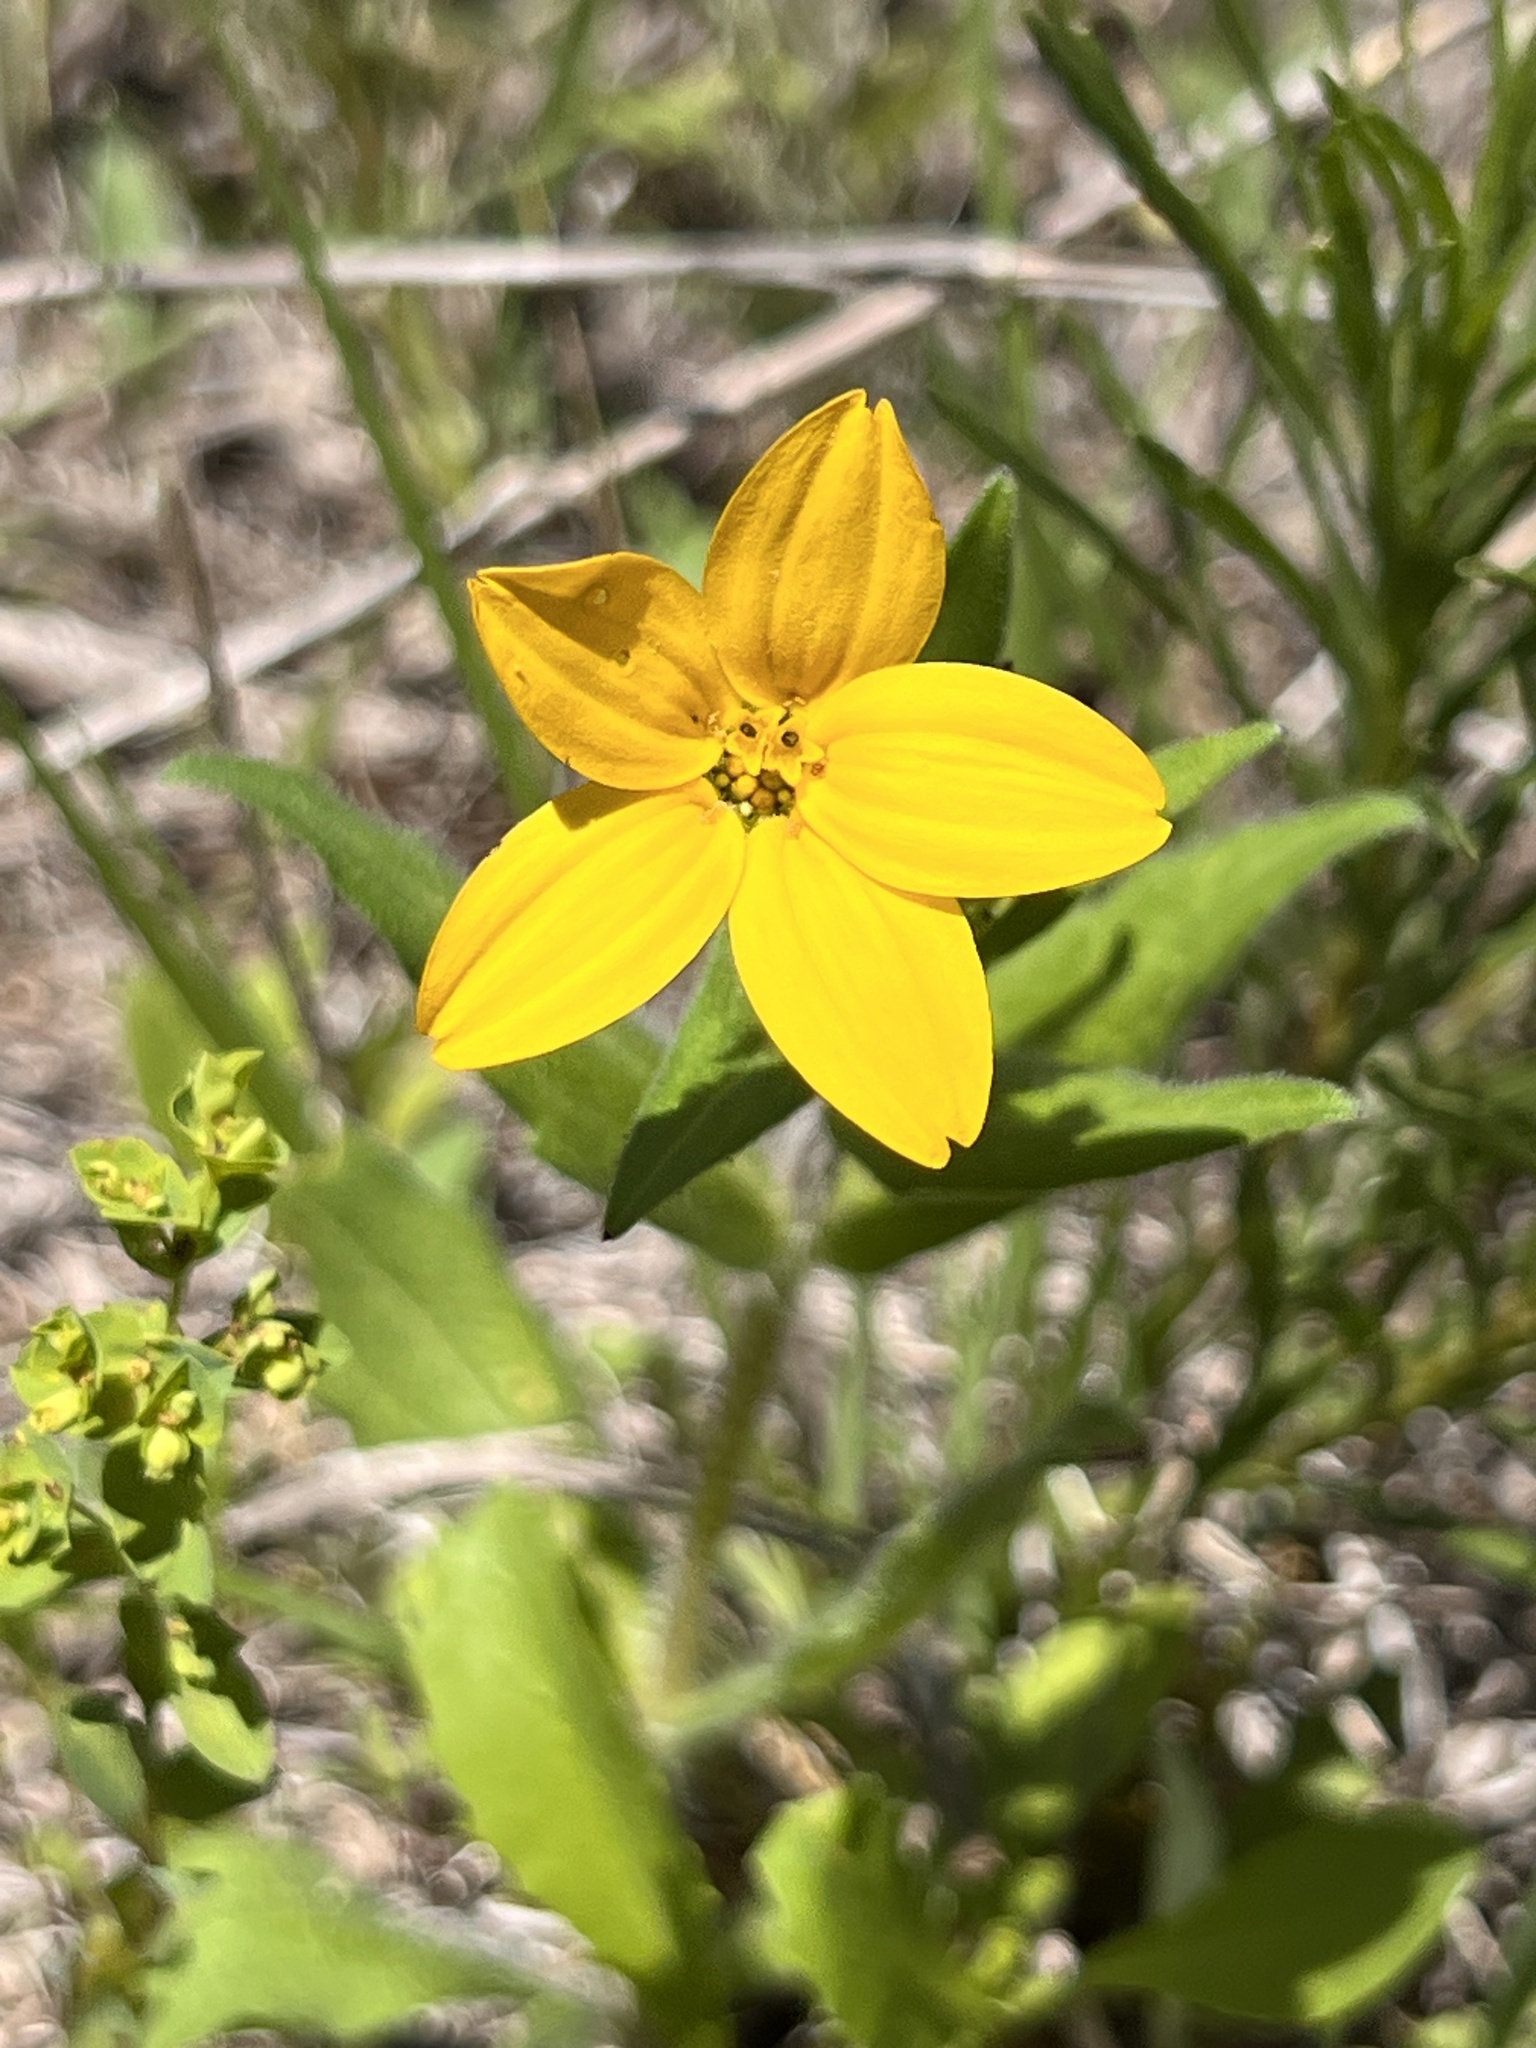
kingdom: Plantae
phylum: Tracheophyta
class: Magnoliopsida
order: Asterales
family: Asteraceae
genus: Lindheimera
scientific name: Lindheimera texana
